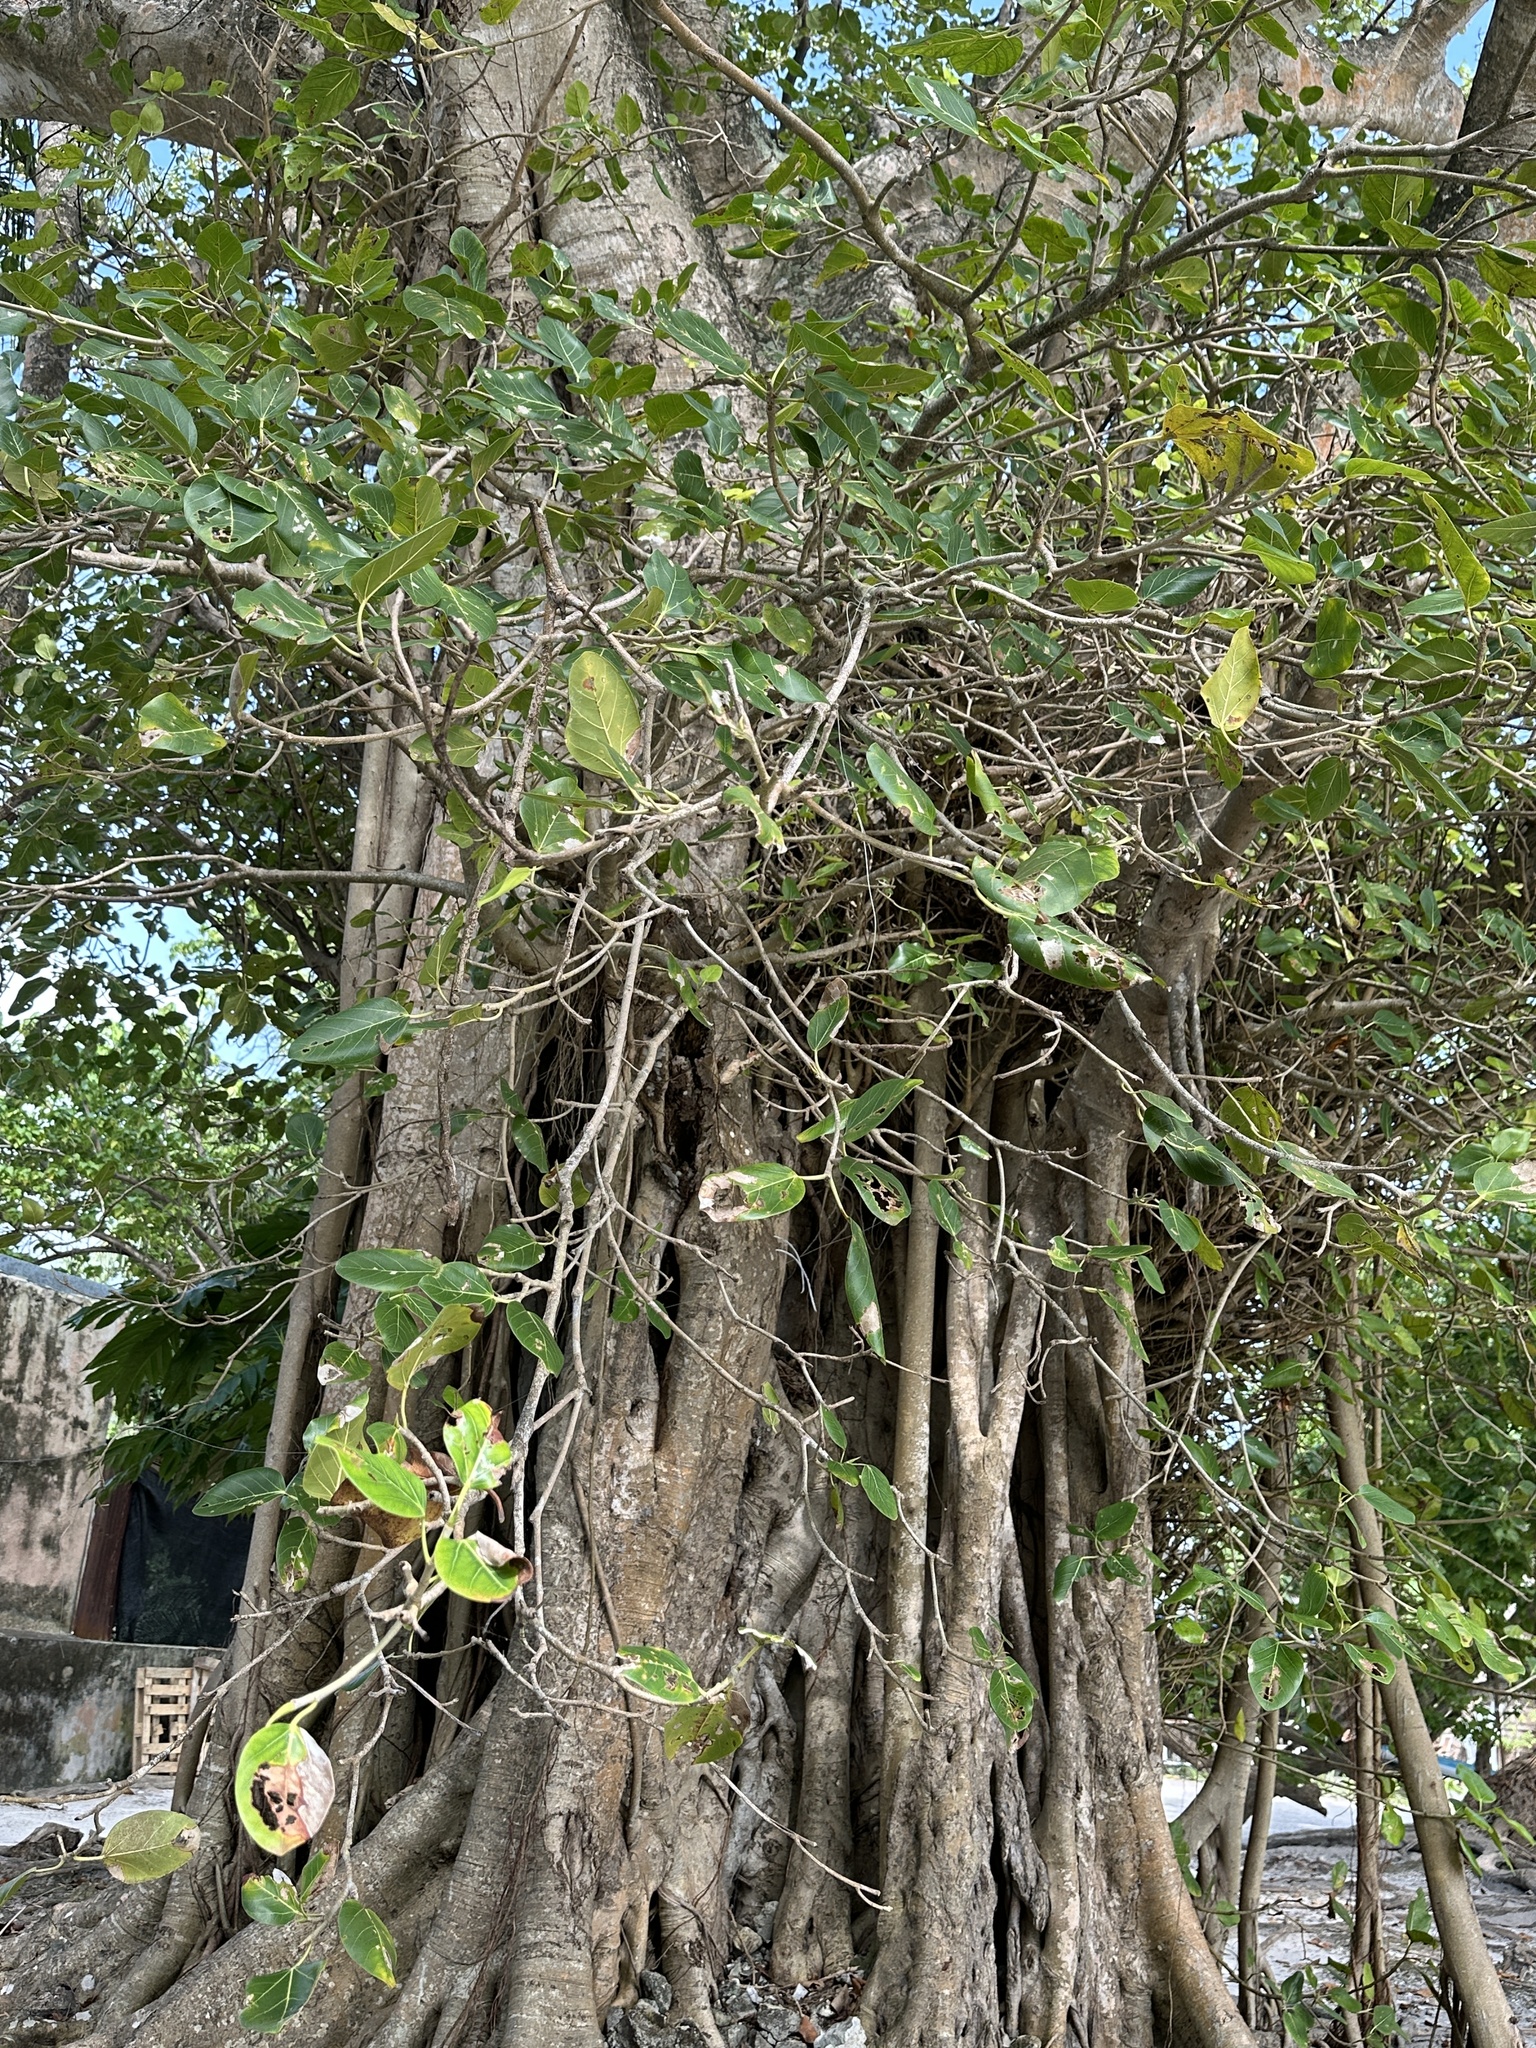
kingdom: Plantae
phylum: Tracheophyta
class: Magnoliopsida
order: Rosales
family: Moraceae
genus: Ficus
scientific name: Ficus benghalensis
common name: Indian banyan
